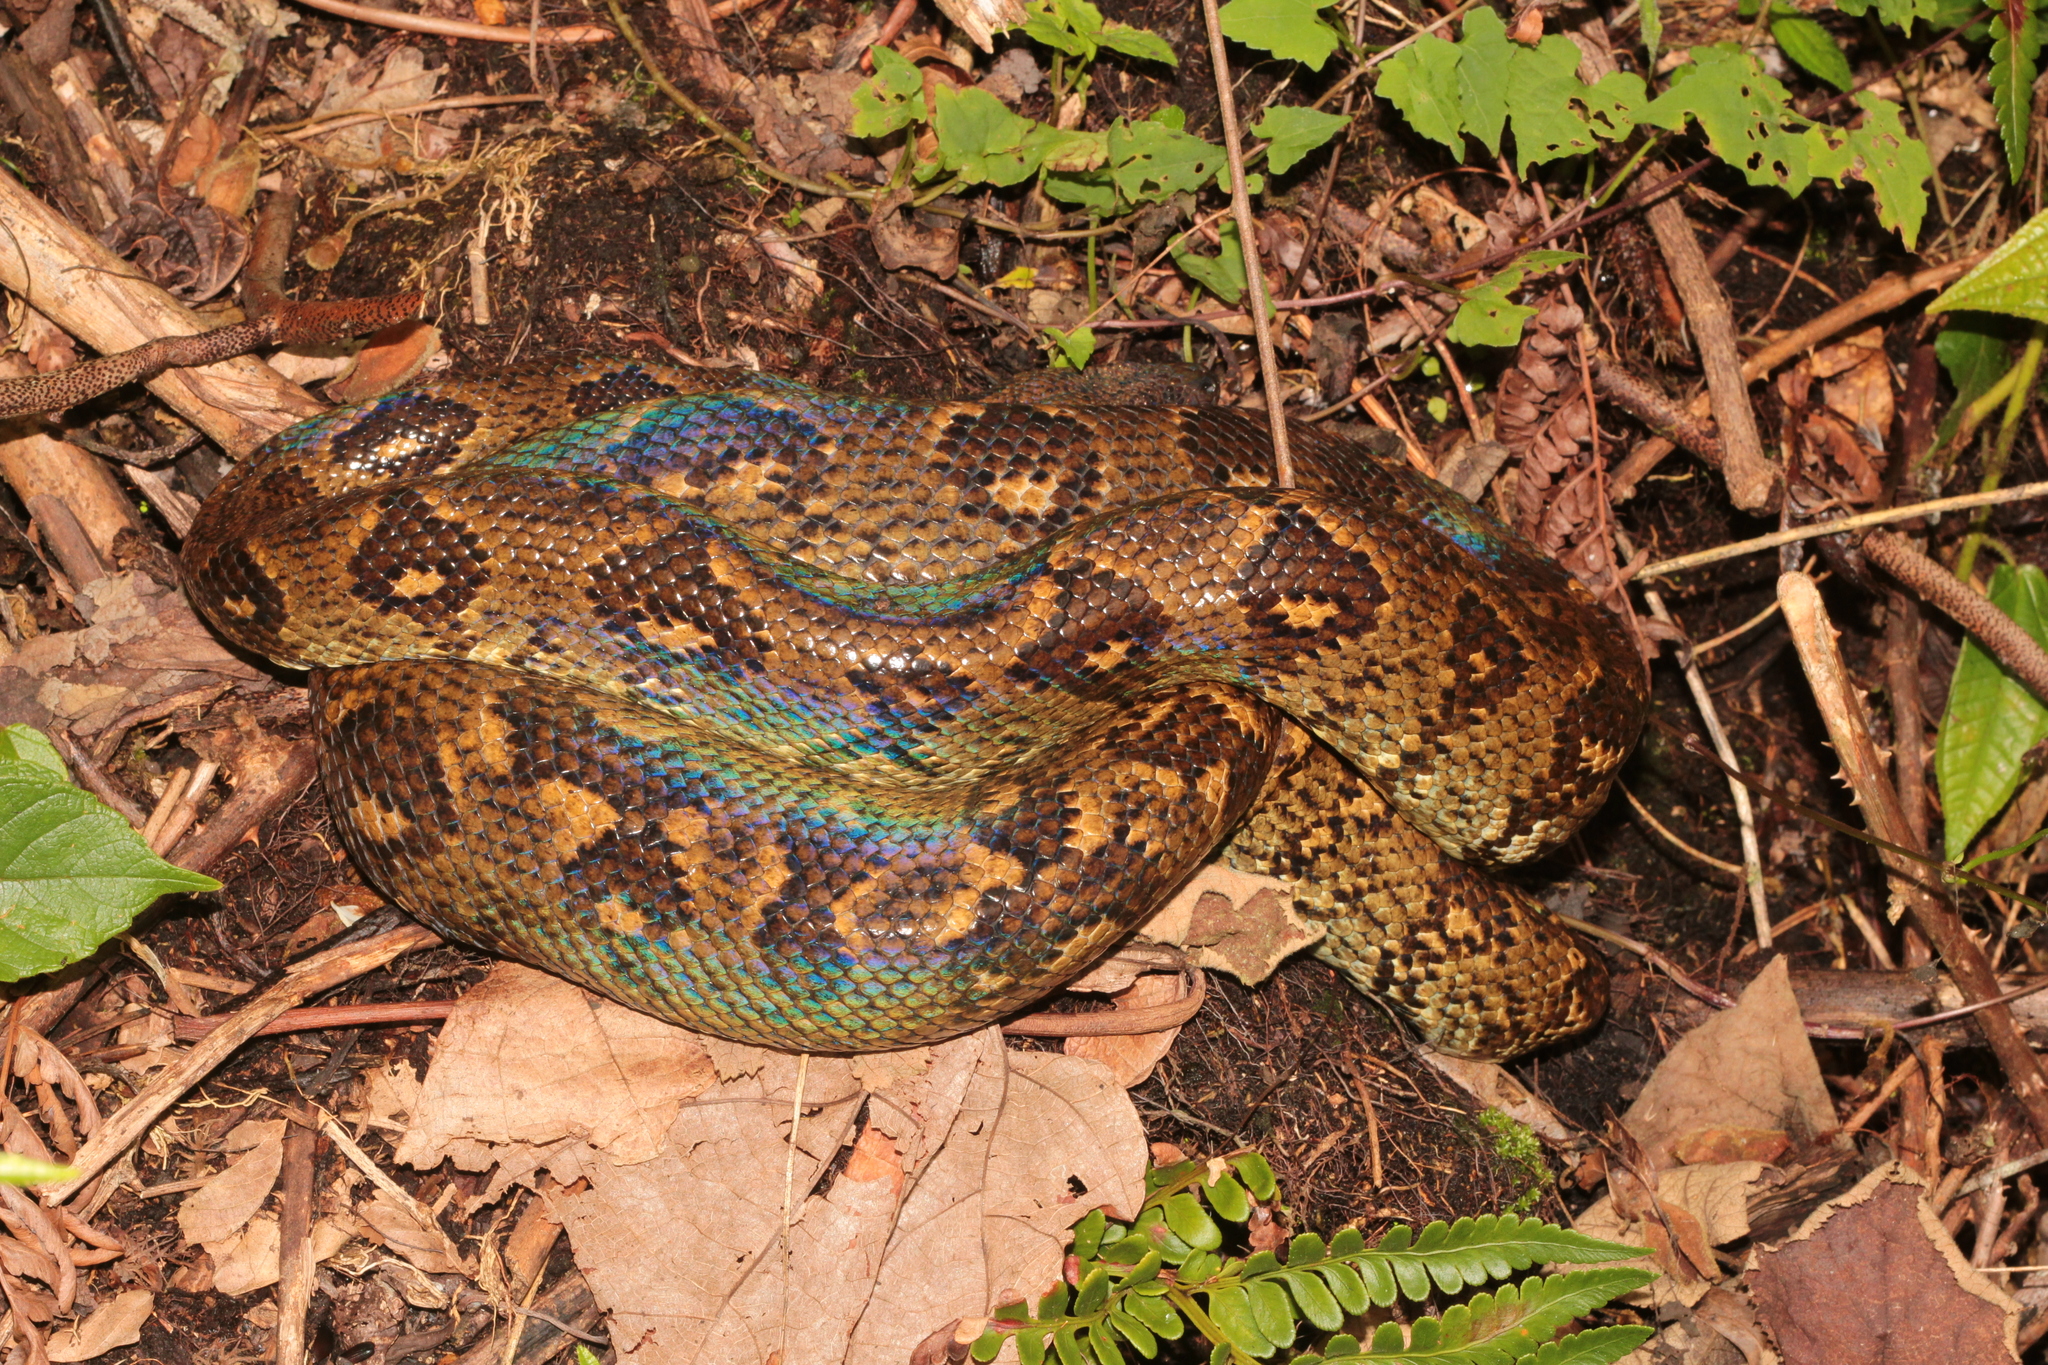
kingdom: Animalia
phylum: Chordata
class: Squamata
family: Boidae
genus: Sanzinia
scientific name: Sanzinia madagascariensis
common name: Madagascar tree boa
